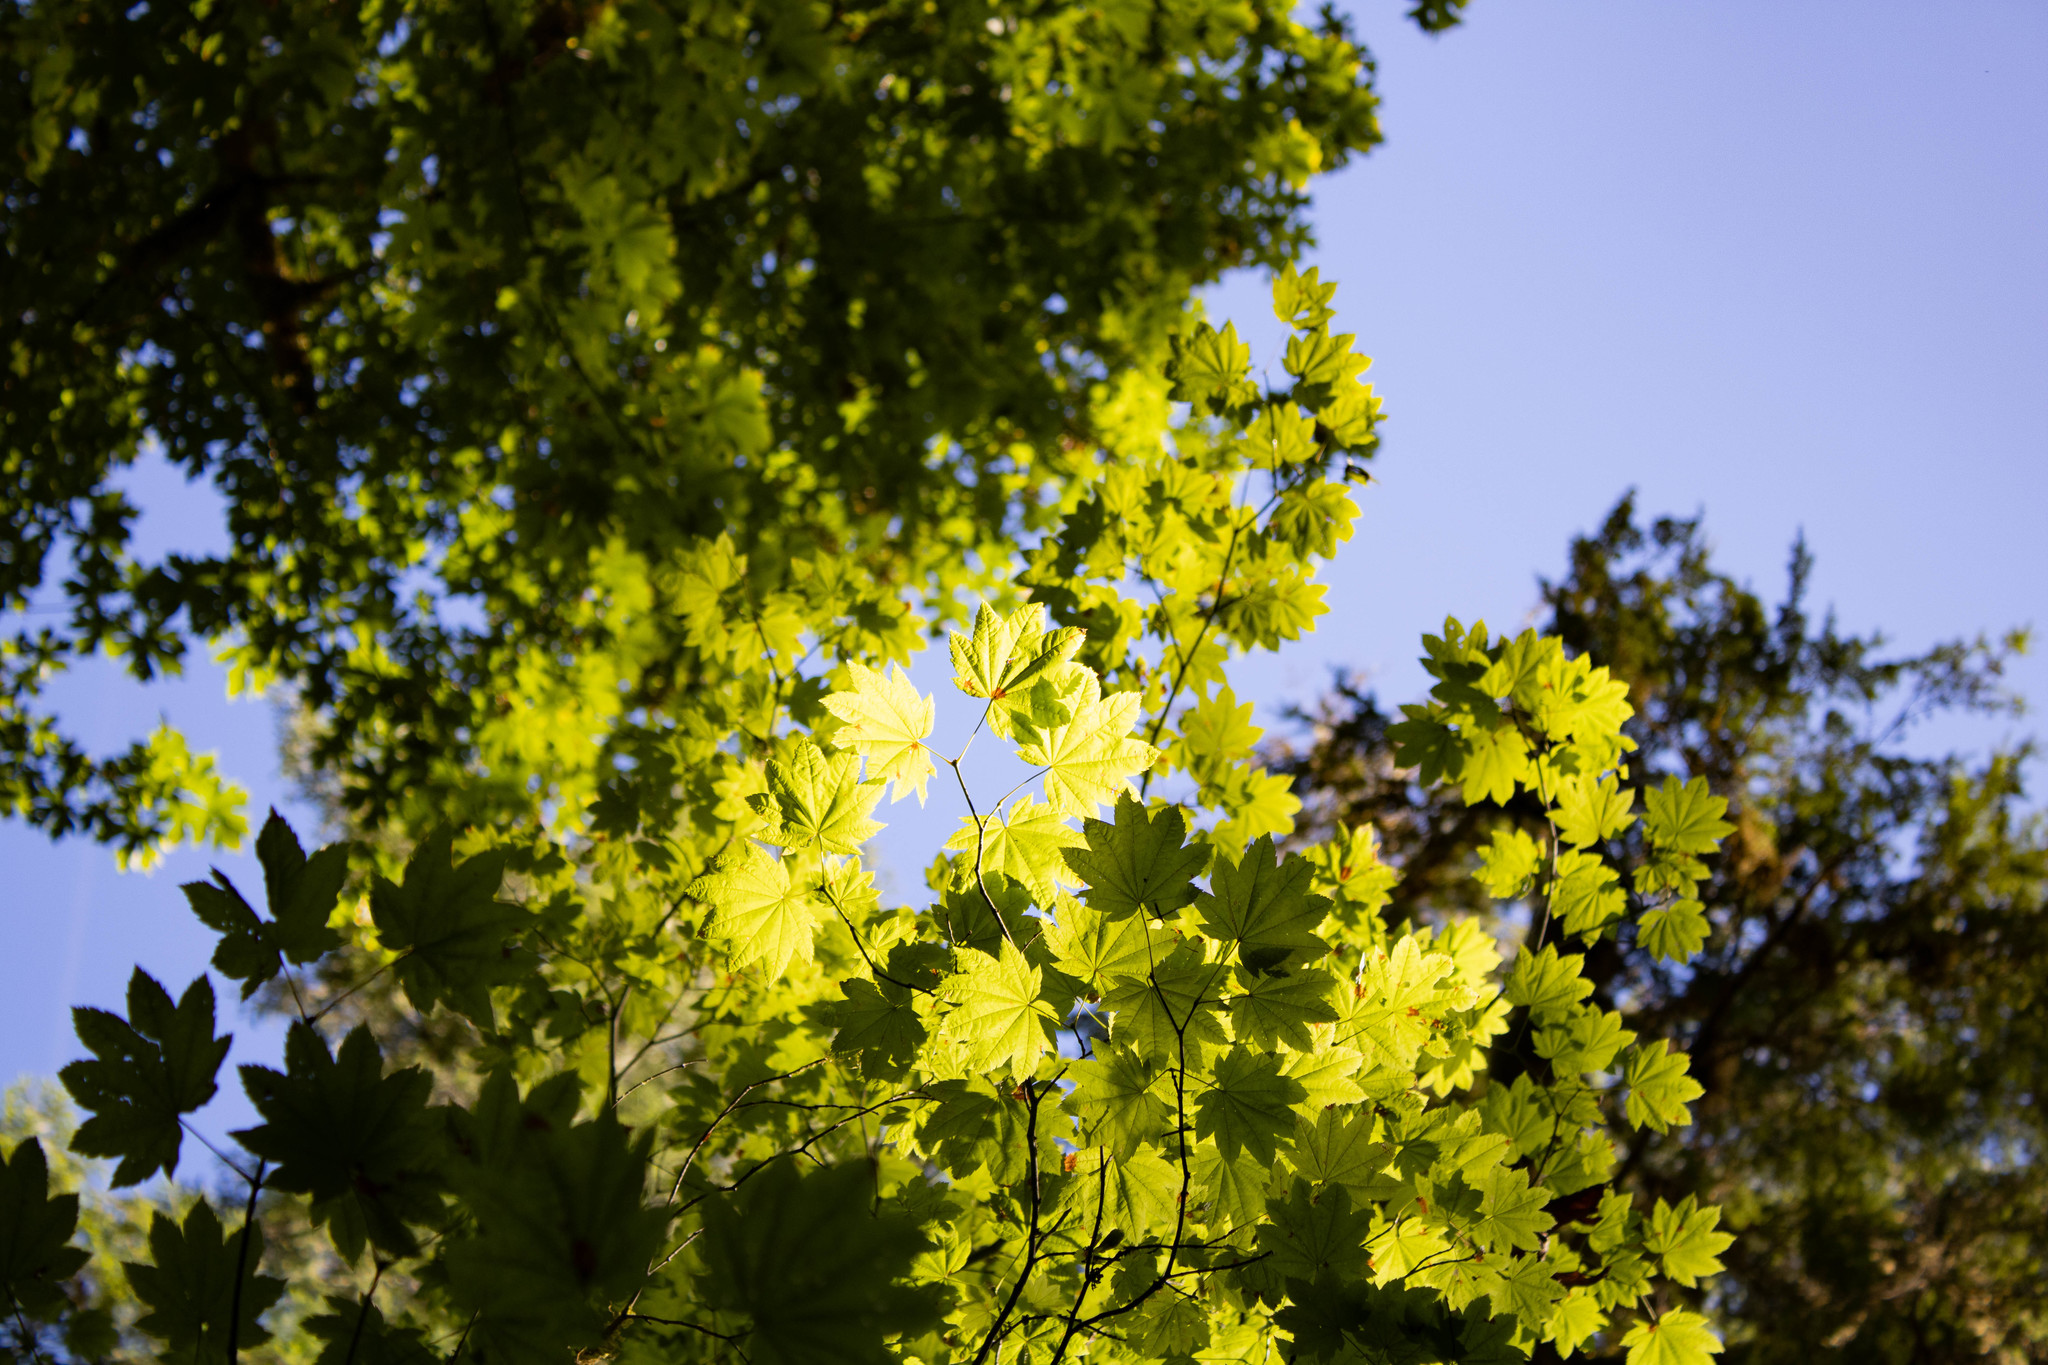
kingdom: Plantae
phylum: Tracheophyta
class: Magnoliopsida
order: Sapindales
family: Sapindaceae
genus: Acer
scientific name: Acer circinatum
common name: Vine maple
